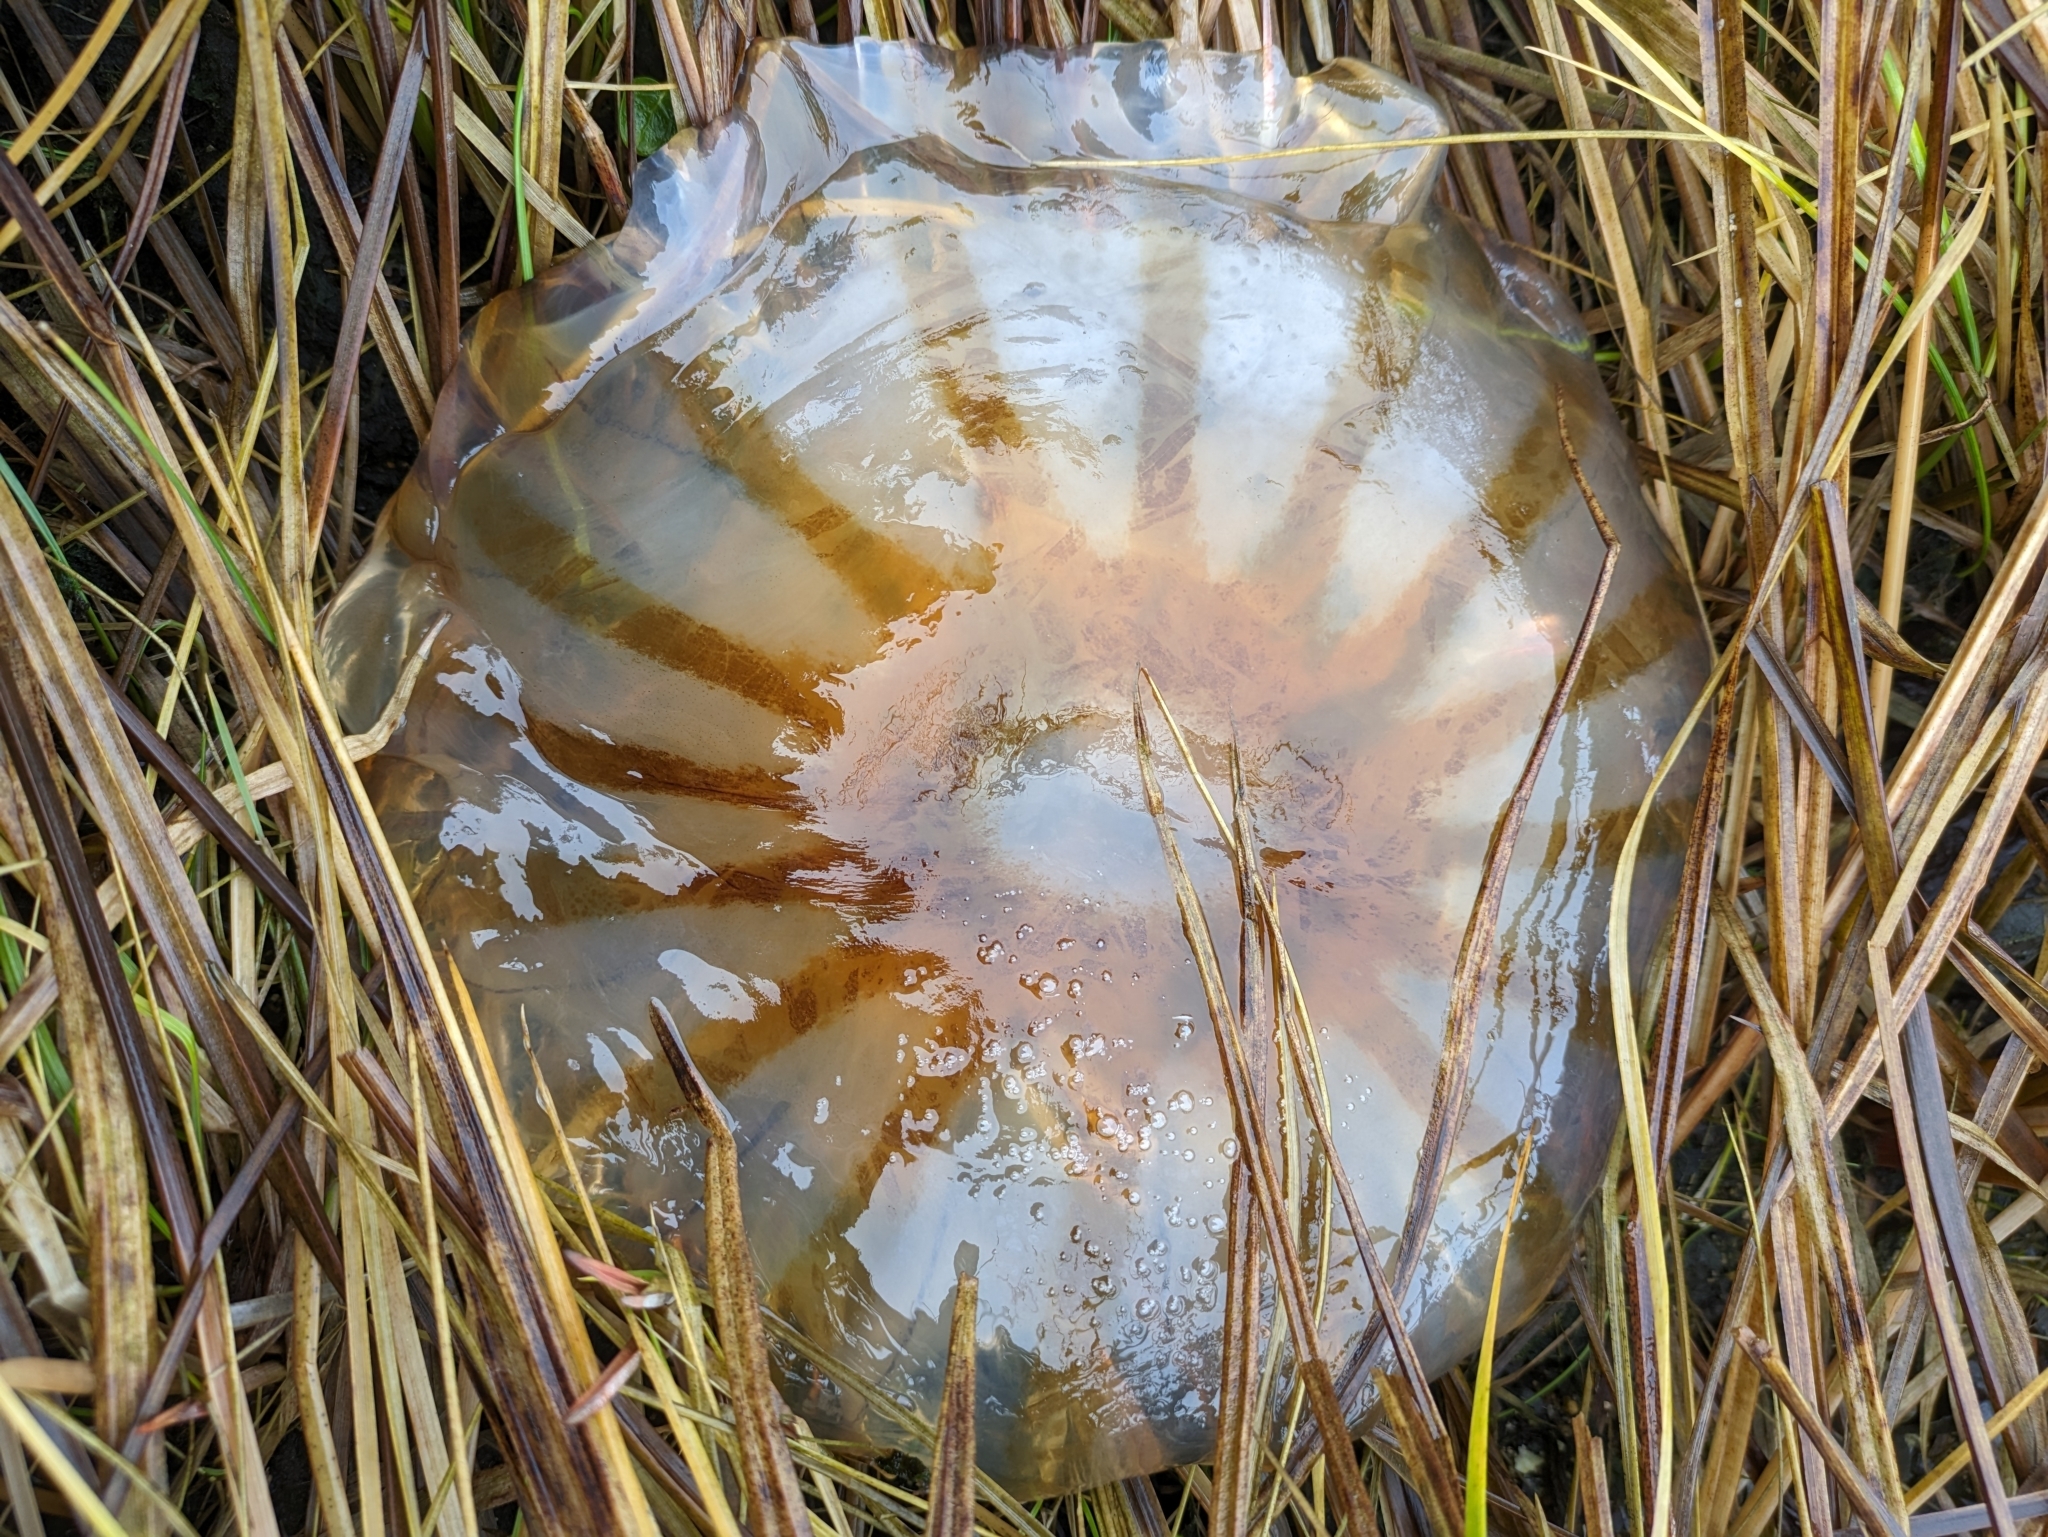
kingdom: Animalia
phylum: Cnidaria
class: Scyphozoa
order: Semaeostomeae
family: Pelagiidae
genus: Chrysaora
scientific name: Chrysaora melanaster
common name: Northern sea nettle
